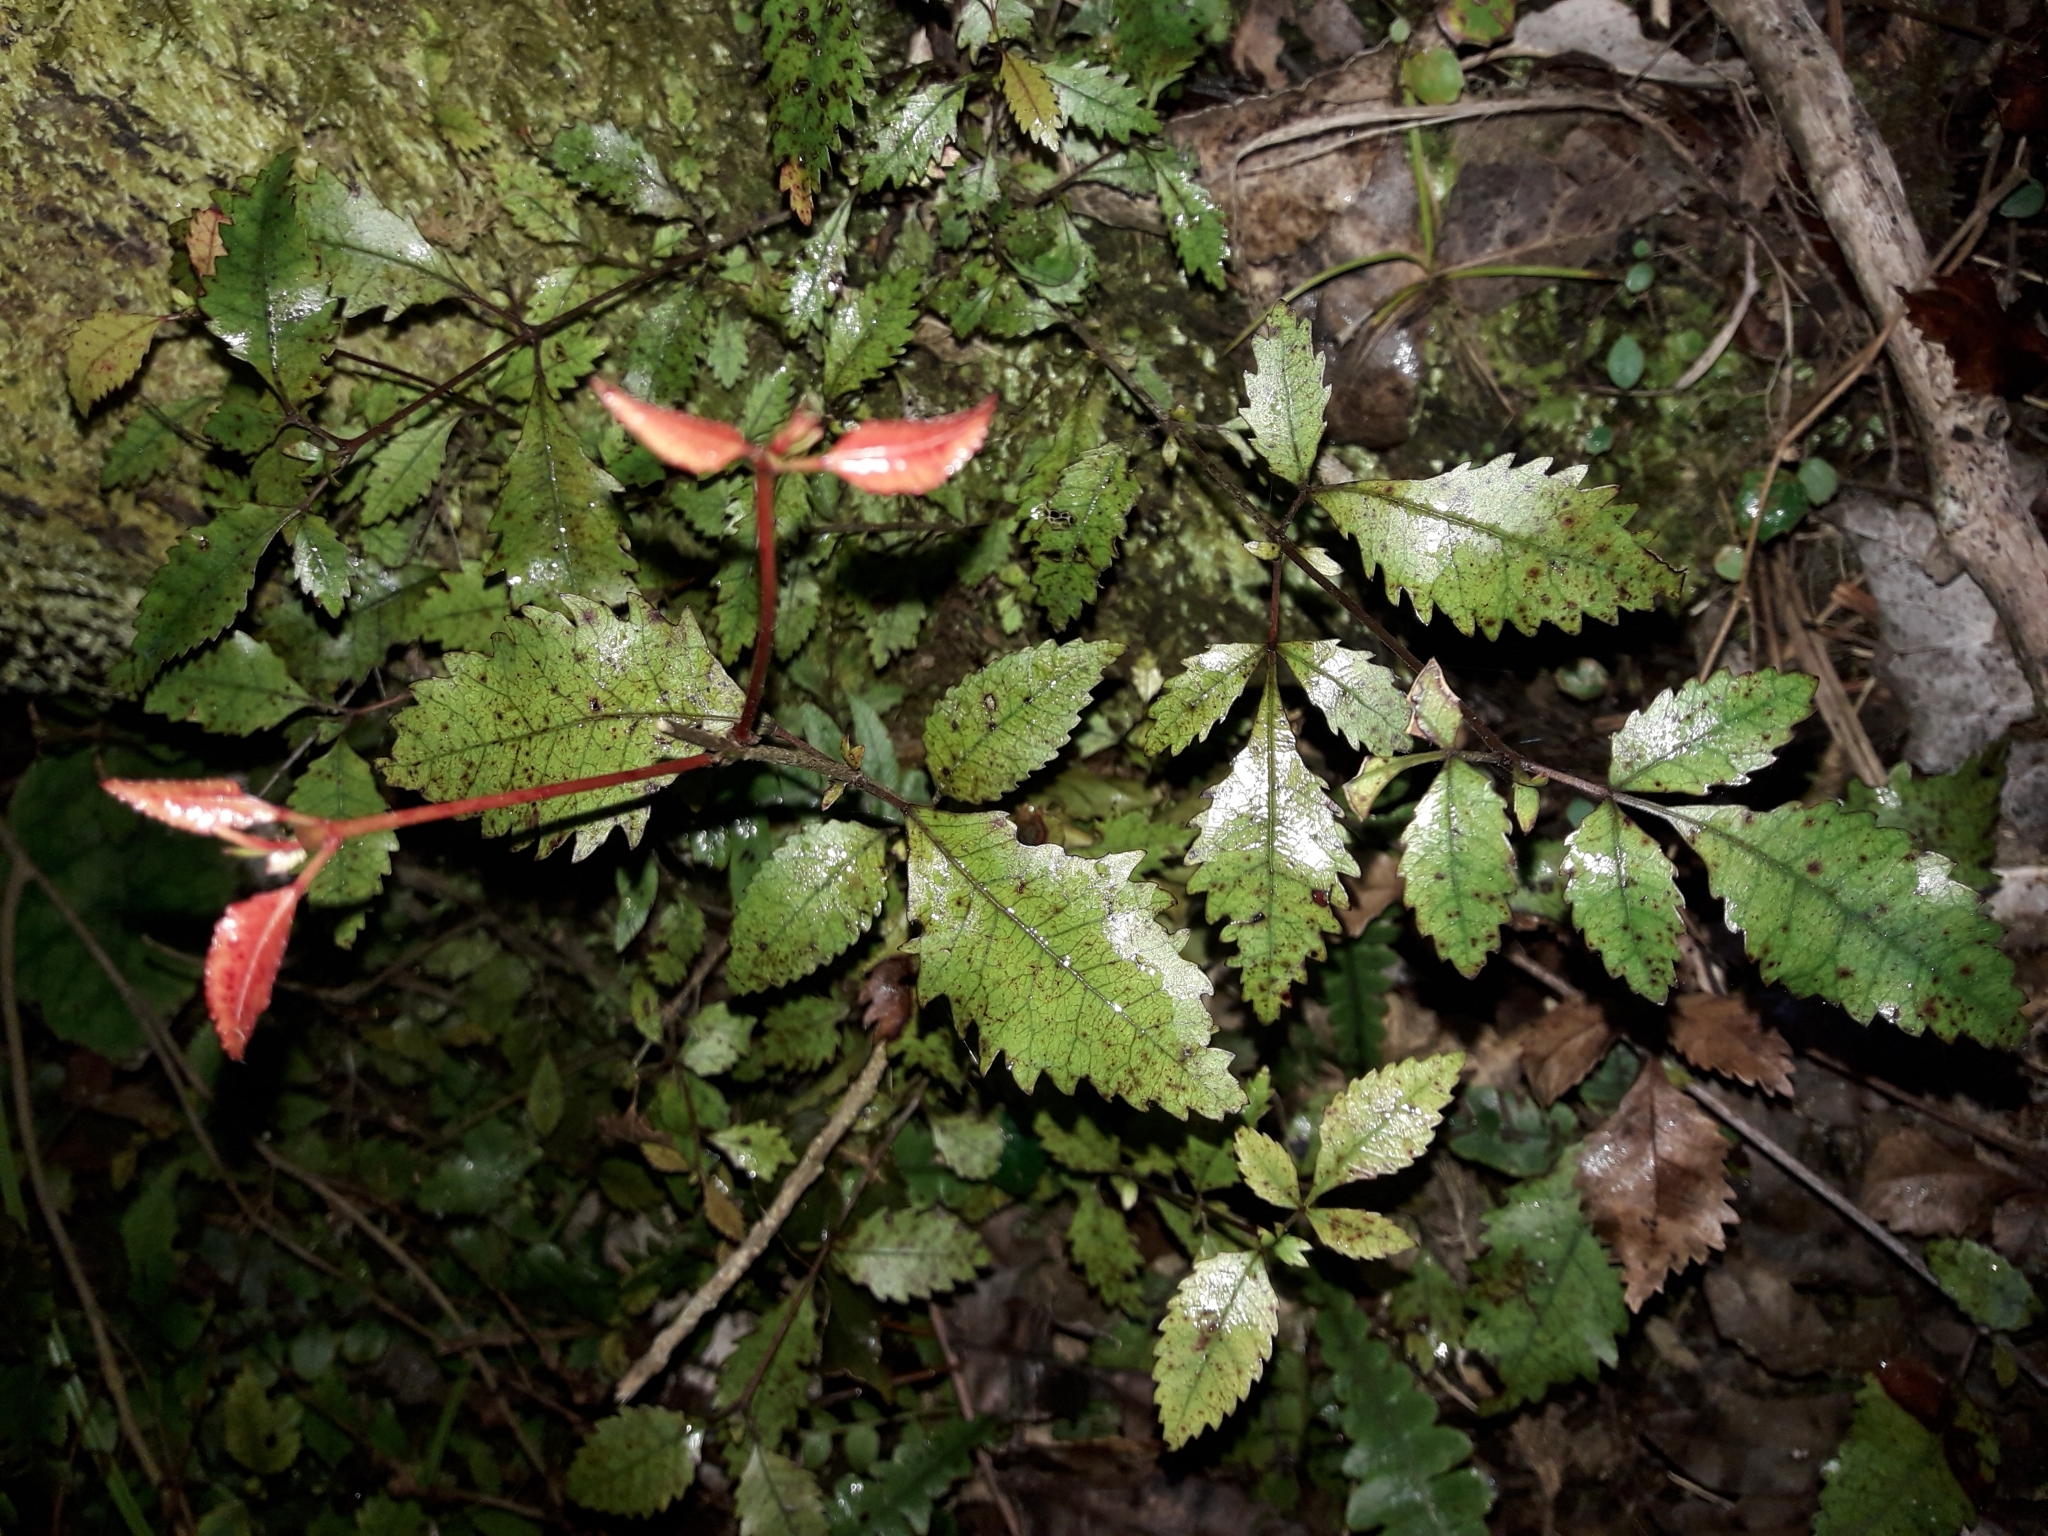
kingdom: Plantae
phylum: Tracheophyta
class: Magnoliopsida
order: Oxalidales
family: Cunoniaceae
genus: Pterophylla
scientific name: Pterophylla racemosa
